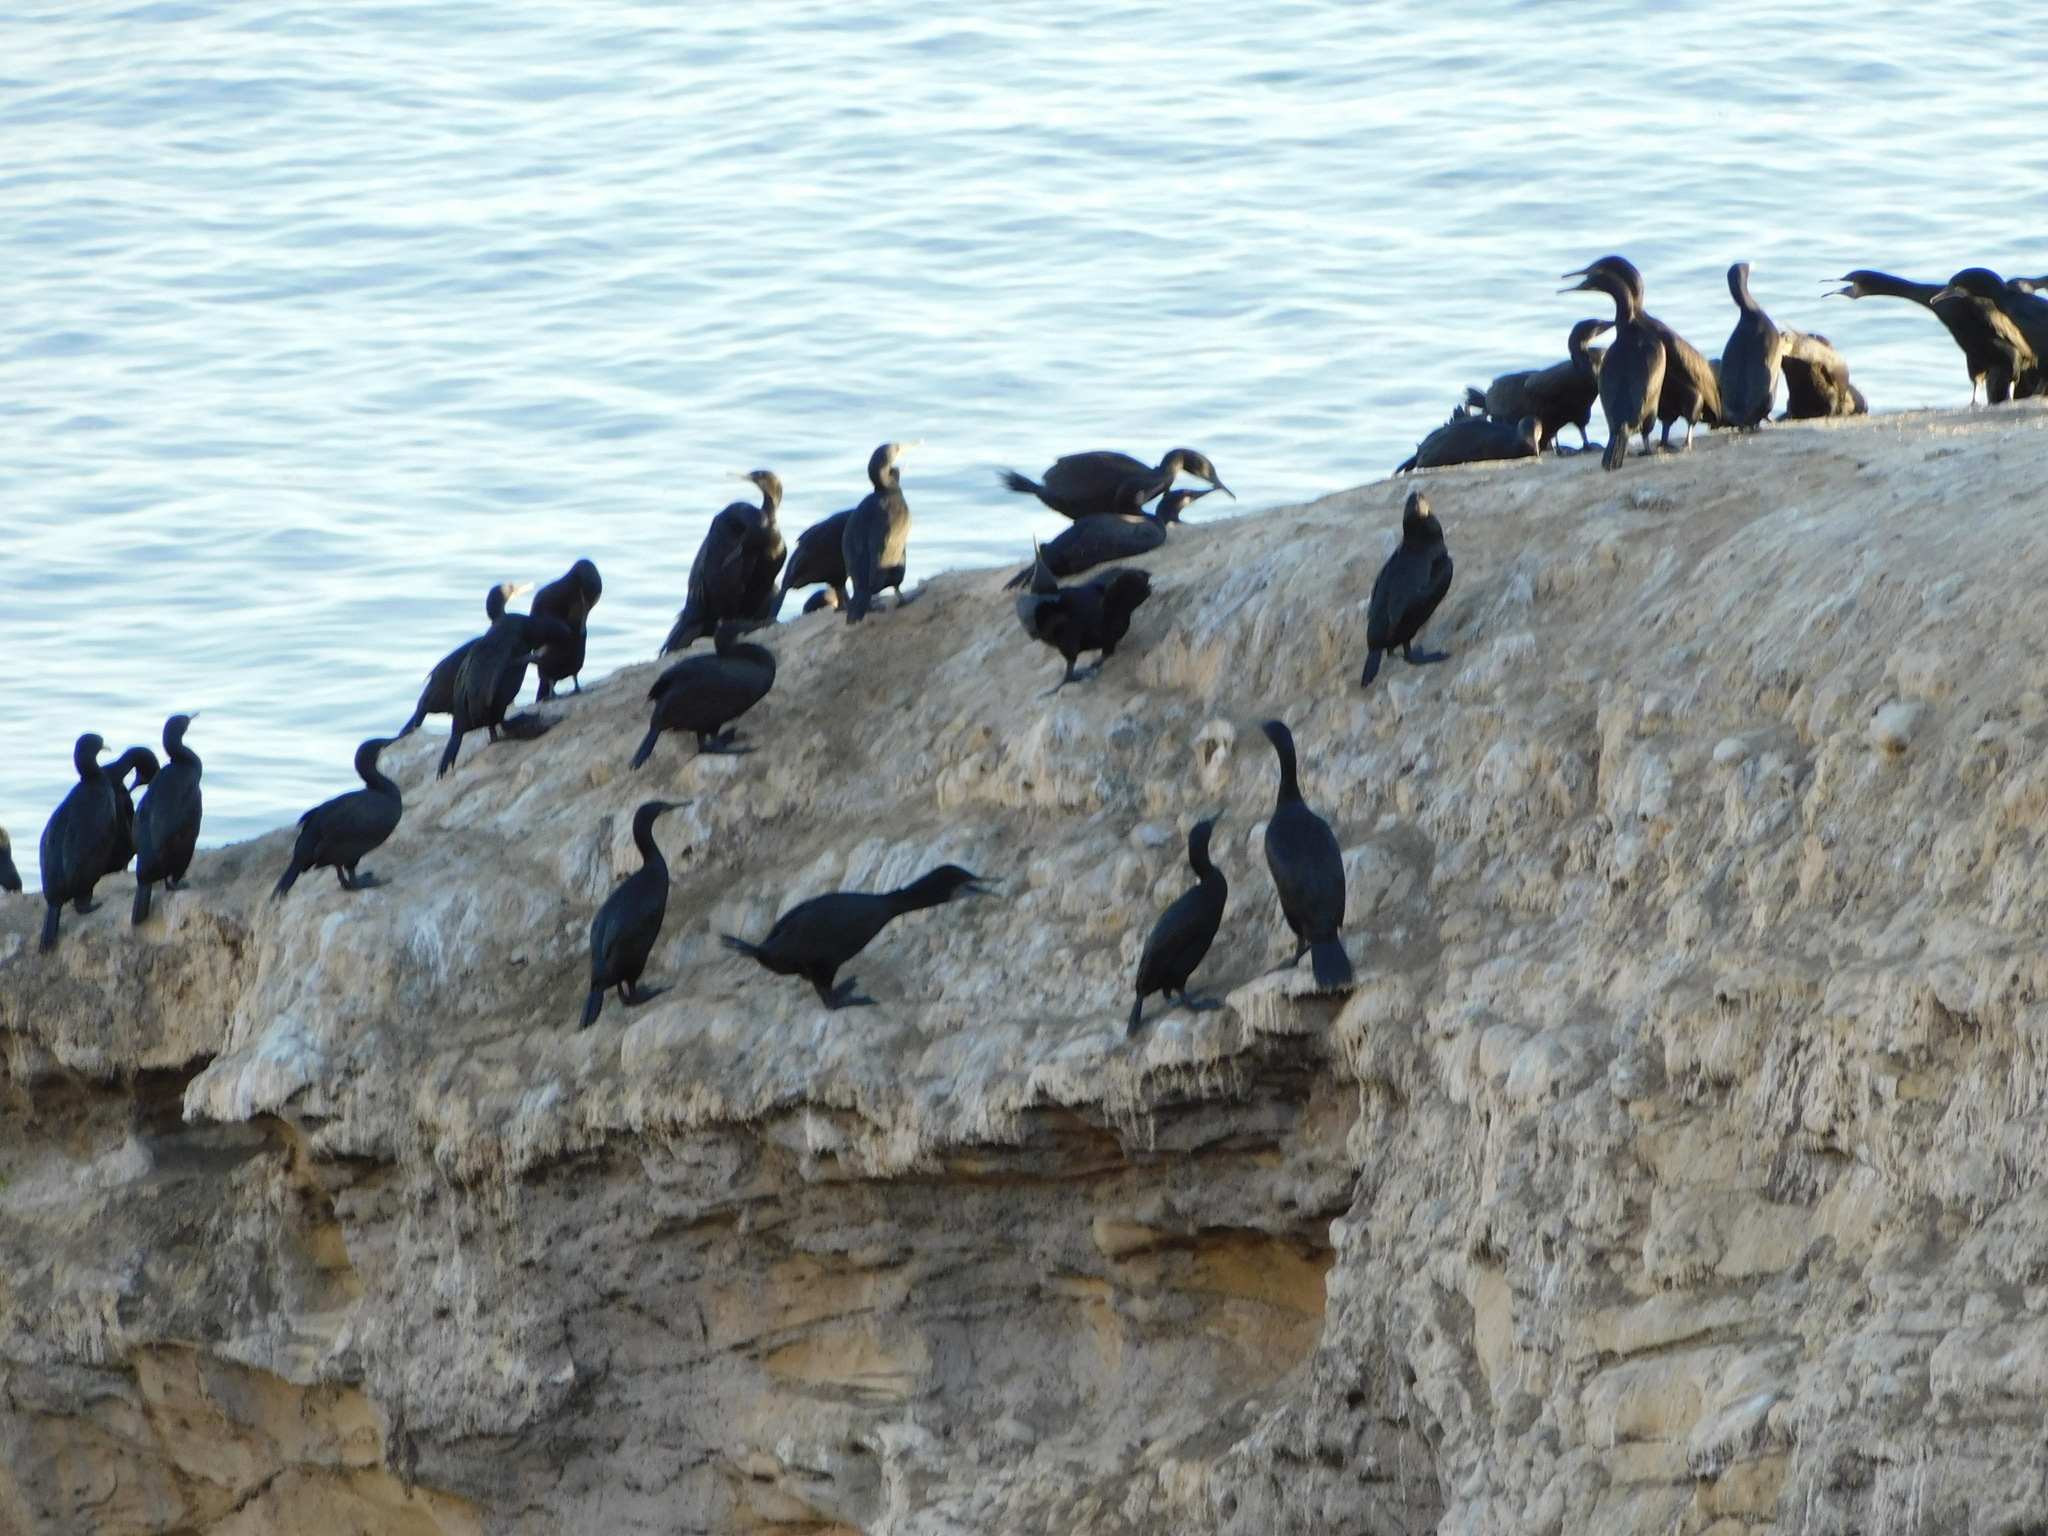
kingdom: Animalia
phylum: Chordata
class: Aves
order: Suliformes
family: Phalacrocoracidae
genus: Urile
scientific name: Urile penicillatus
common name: Brandt's cormorant
